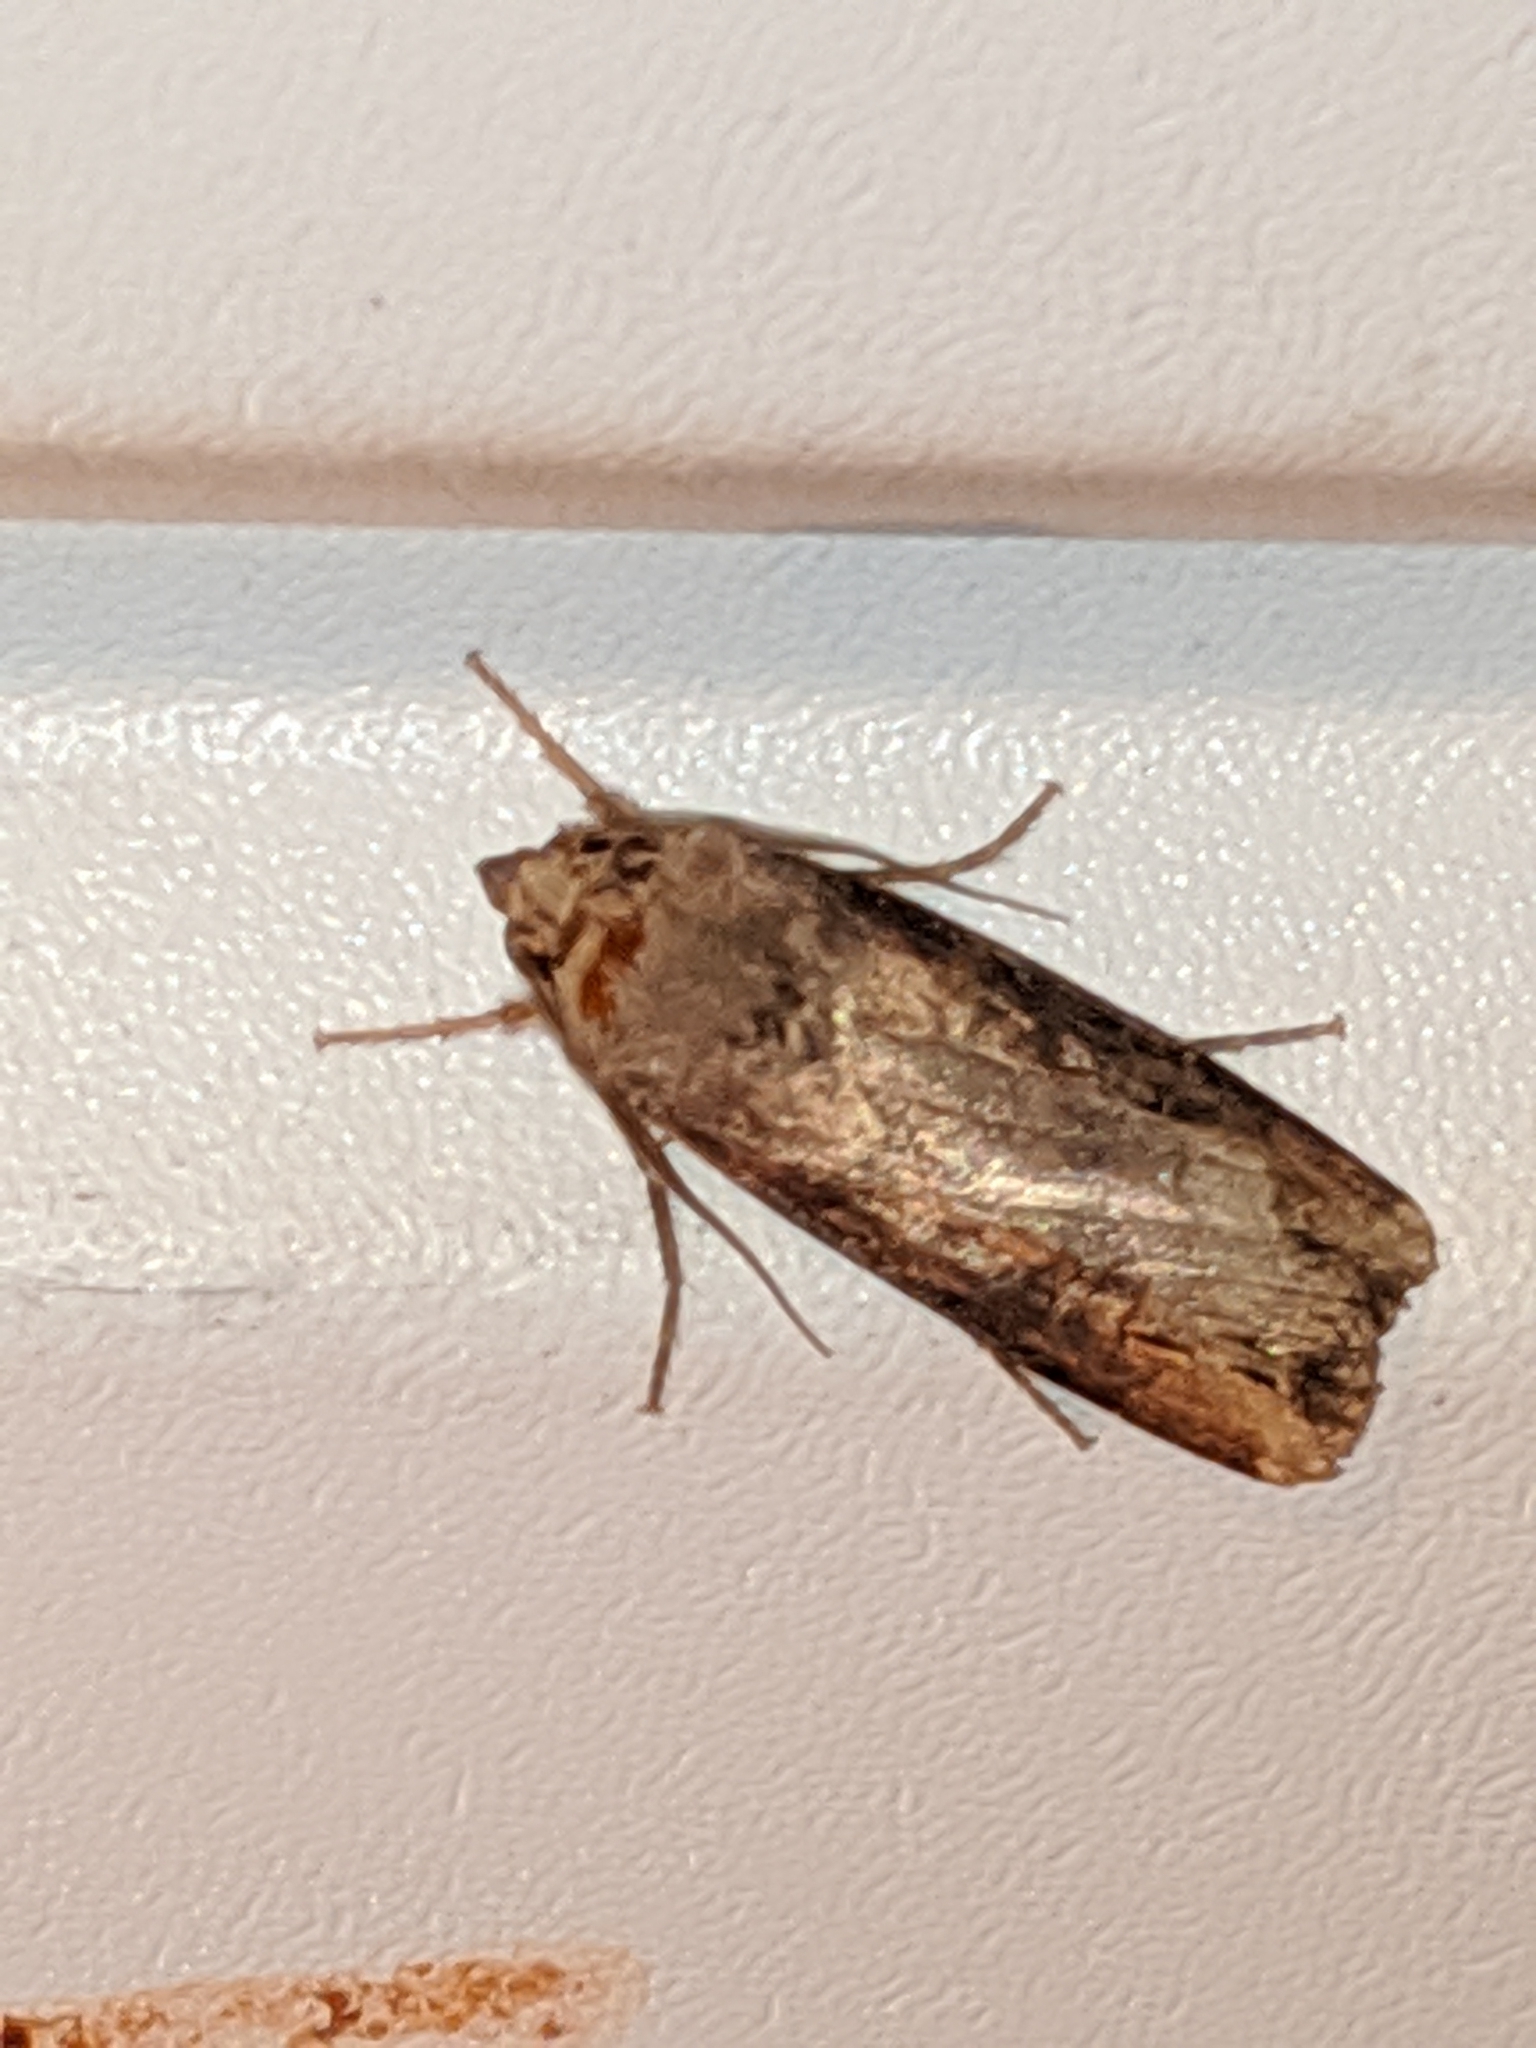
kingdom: Animalia
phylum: Arthropoda
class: Insecta
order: Lepidoptera
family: Noctuidae
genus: Agrotis
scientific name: Agrotis ipsilon
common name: Dark sword-grass
